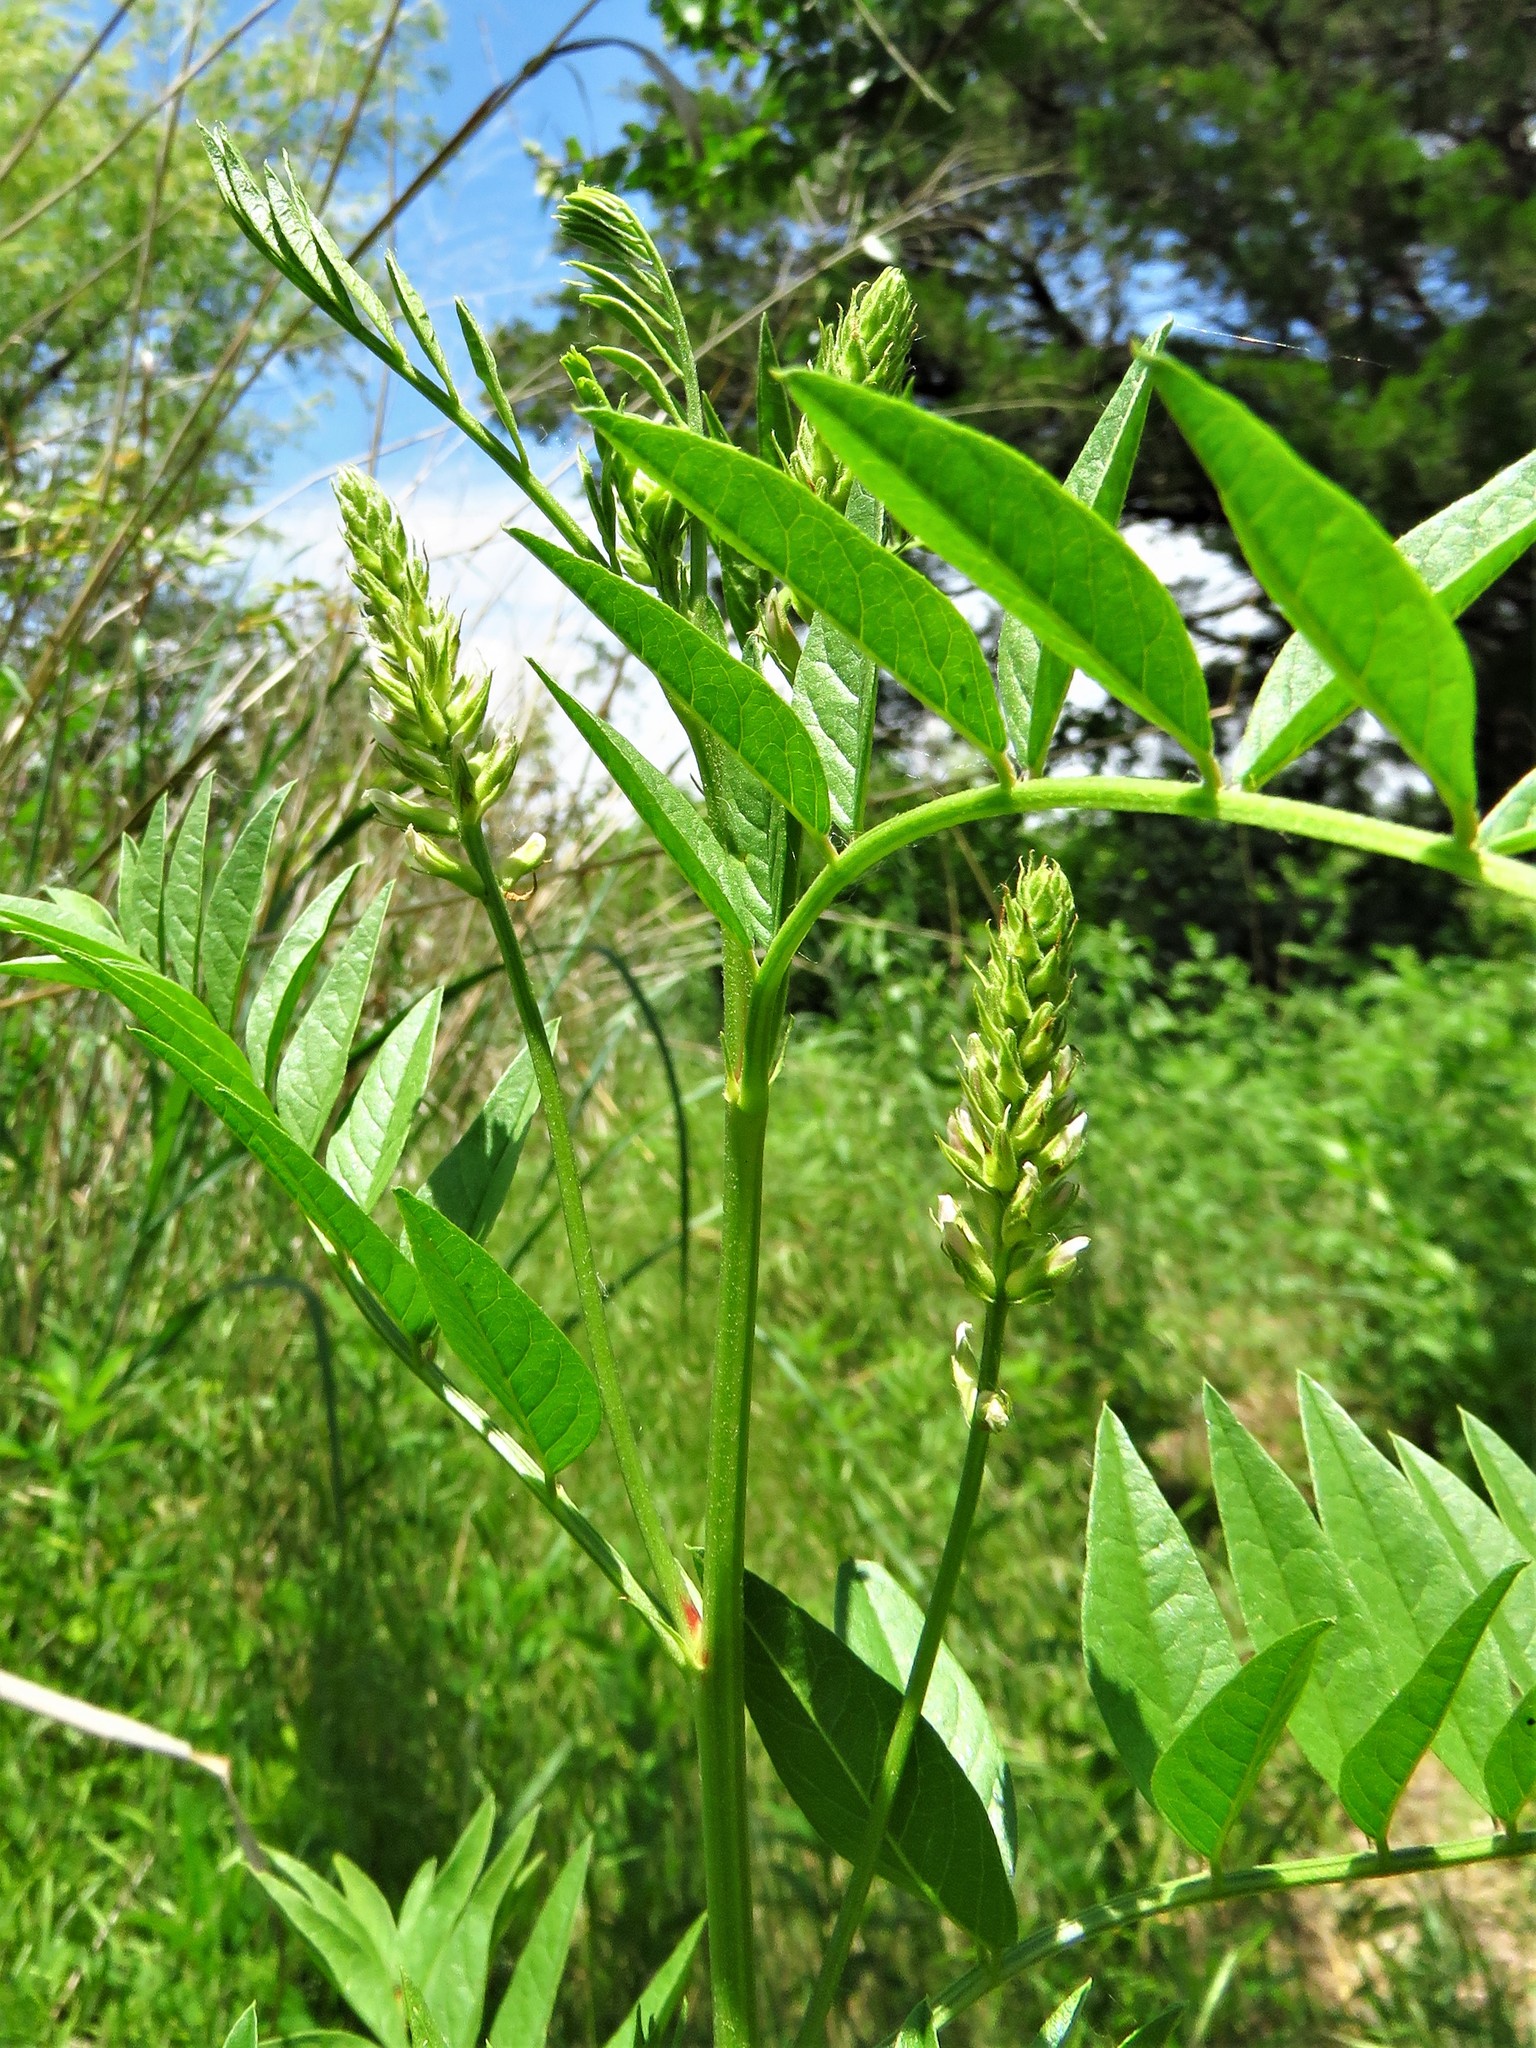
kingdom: Plantae
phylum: Tracheophyta
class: Magnoliopsida
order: Fabales
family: Fabaceae
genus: Glycyrrhiza
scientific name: Glycyrrhiza lepidota
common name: American liquorice
